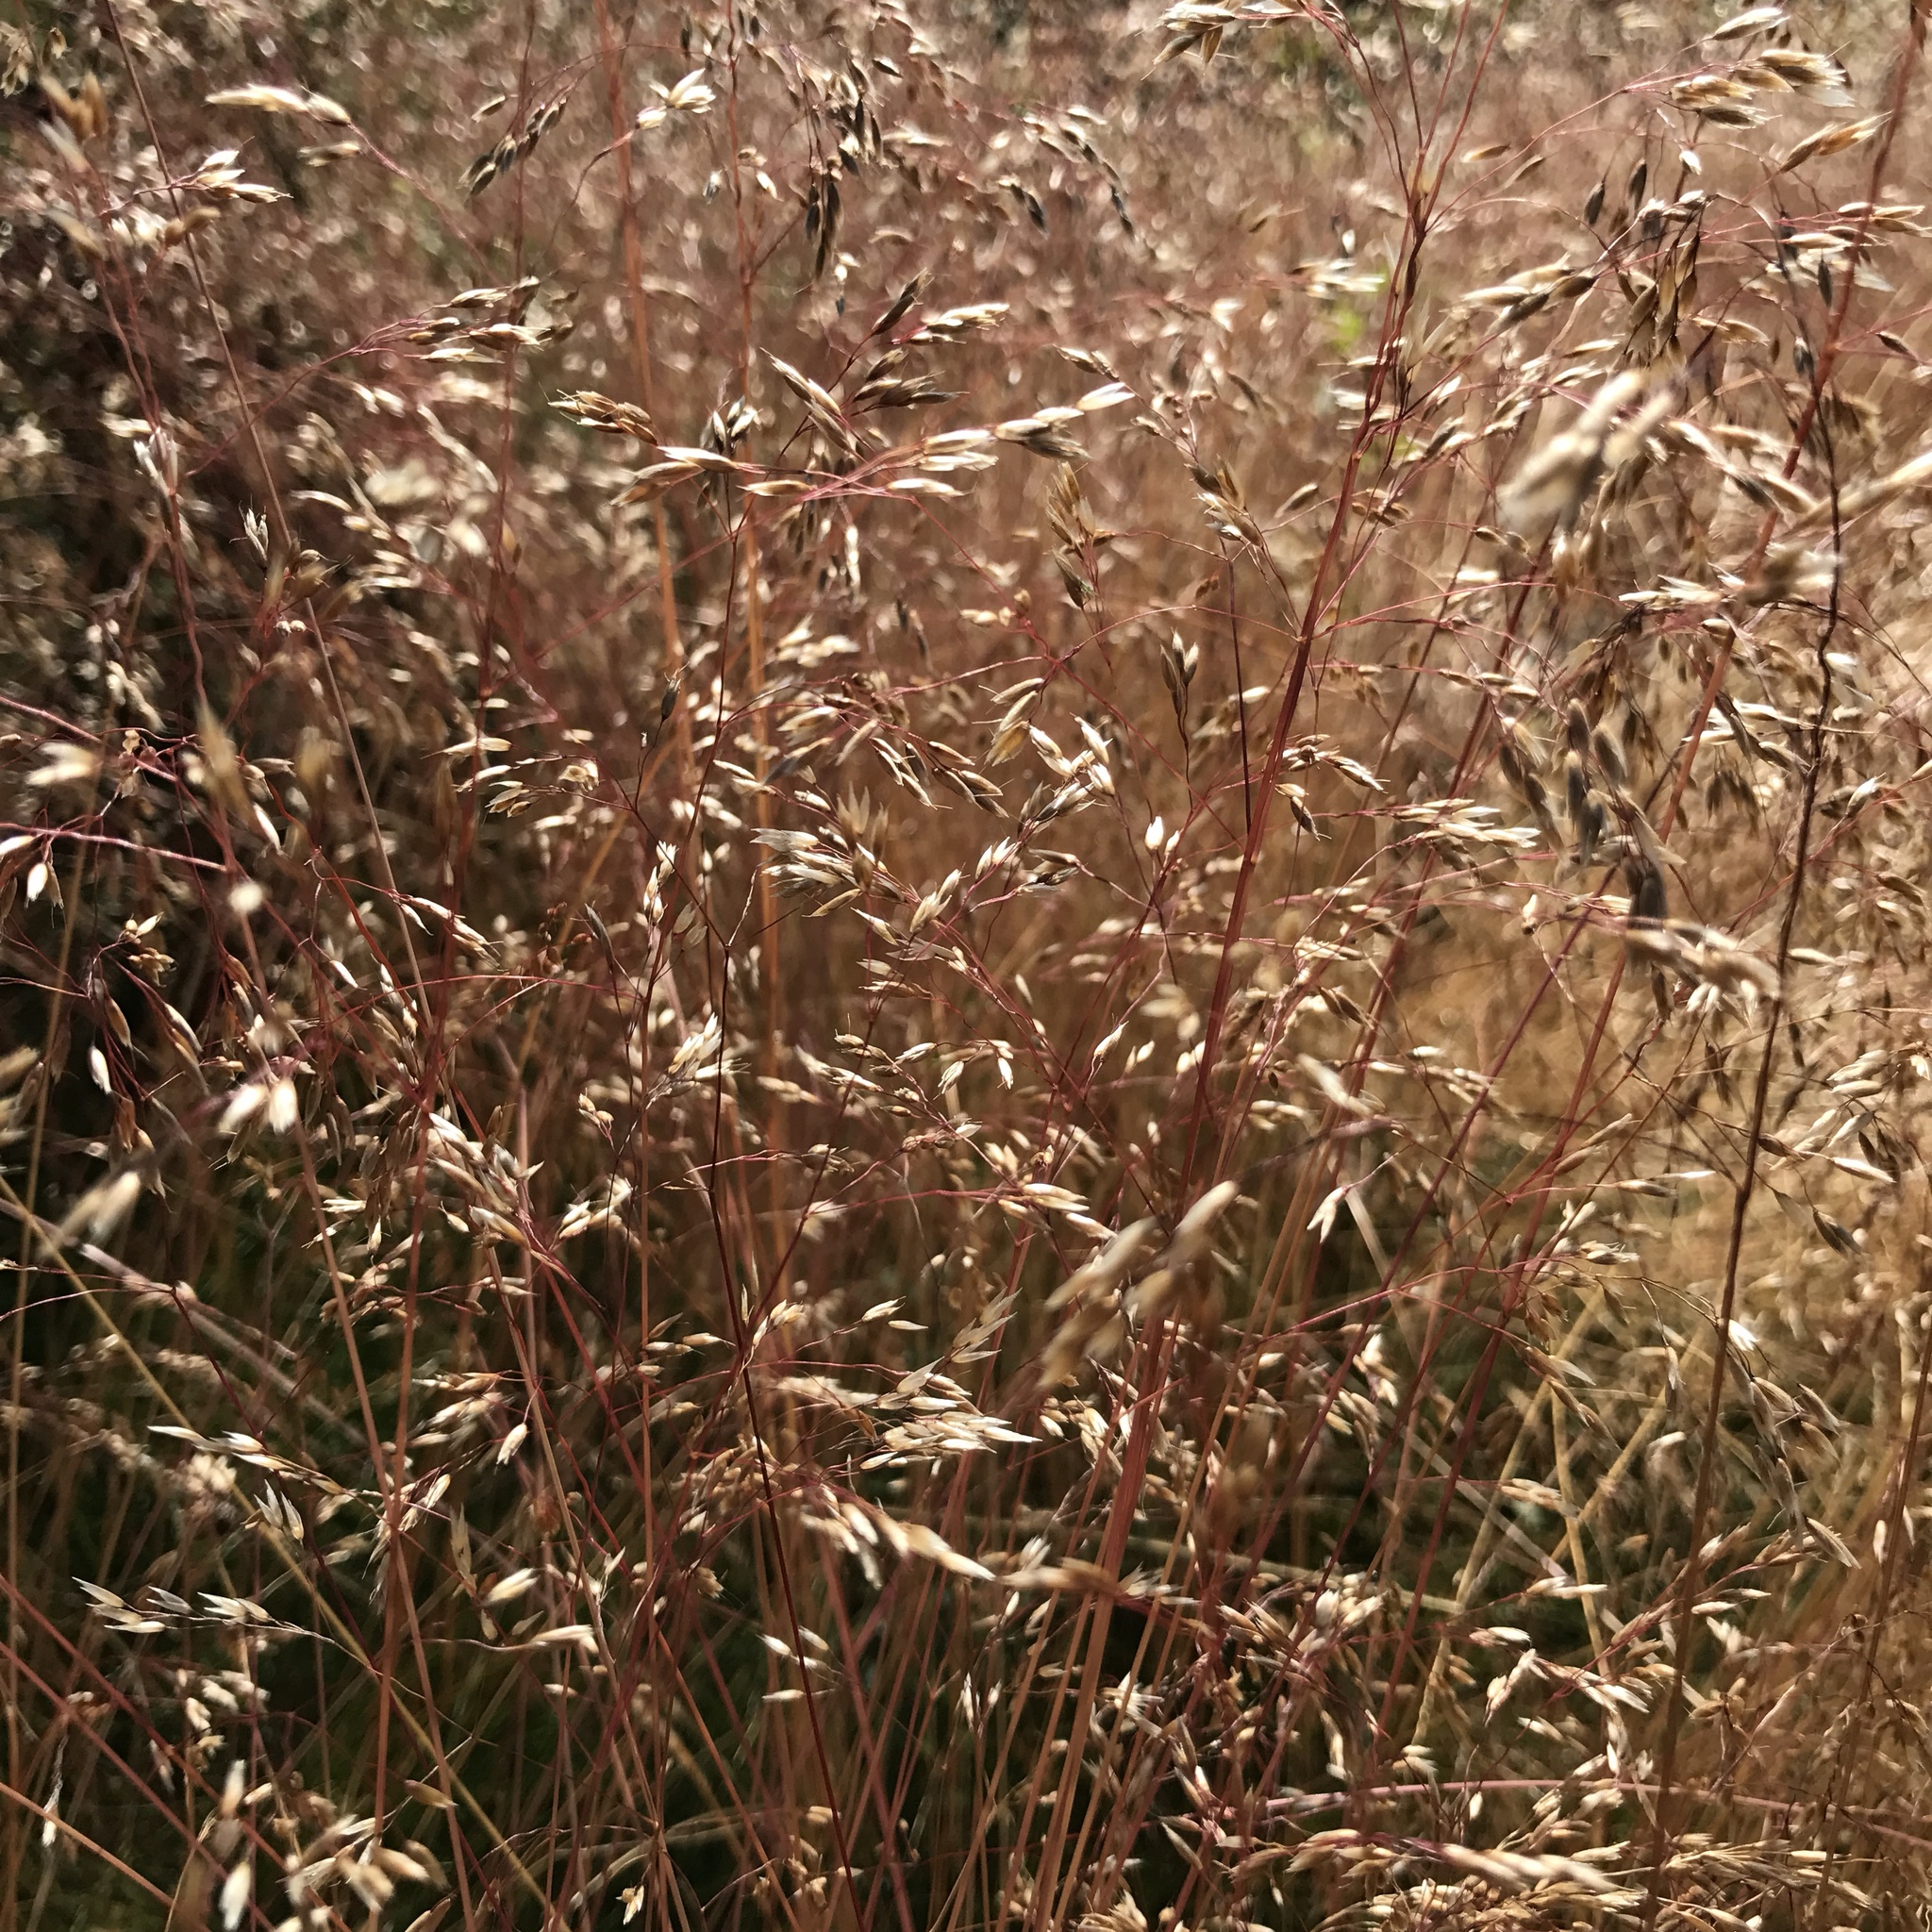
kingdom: Plantae
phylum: Tracheophyta
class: Liliopsida
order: Poales
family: Poaceae
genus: Avenella
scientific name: Avenella flexuosa
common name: Wavy hairgrass
